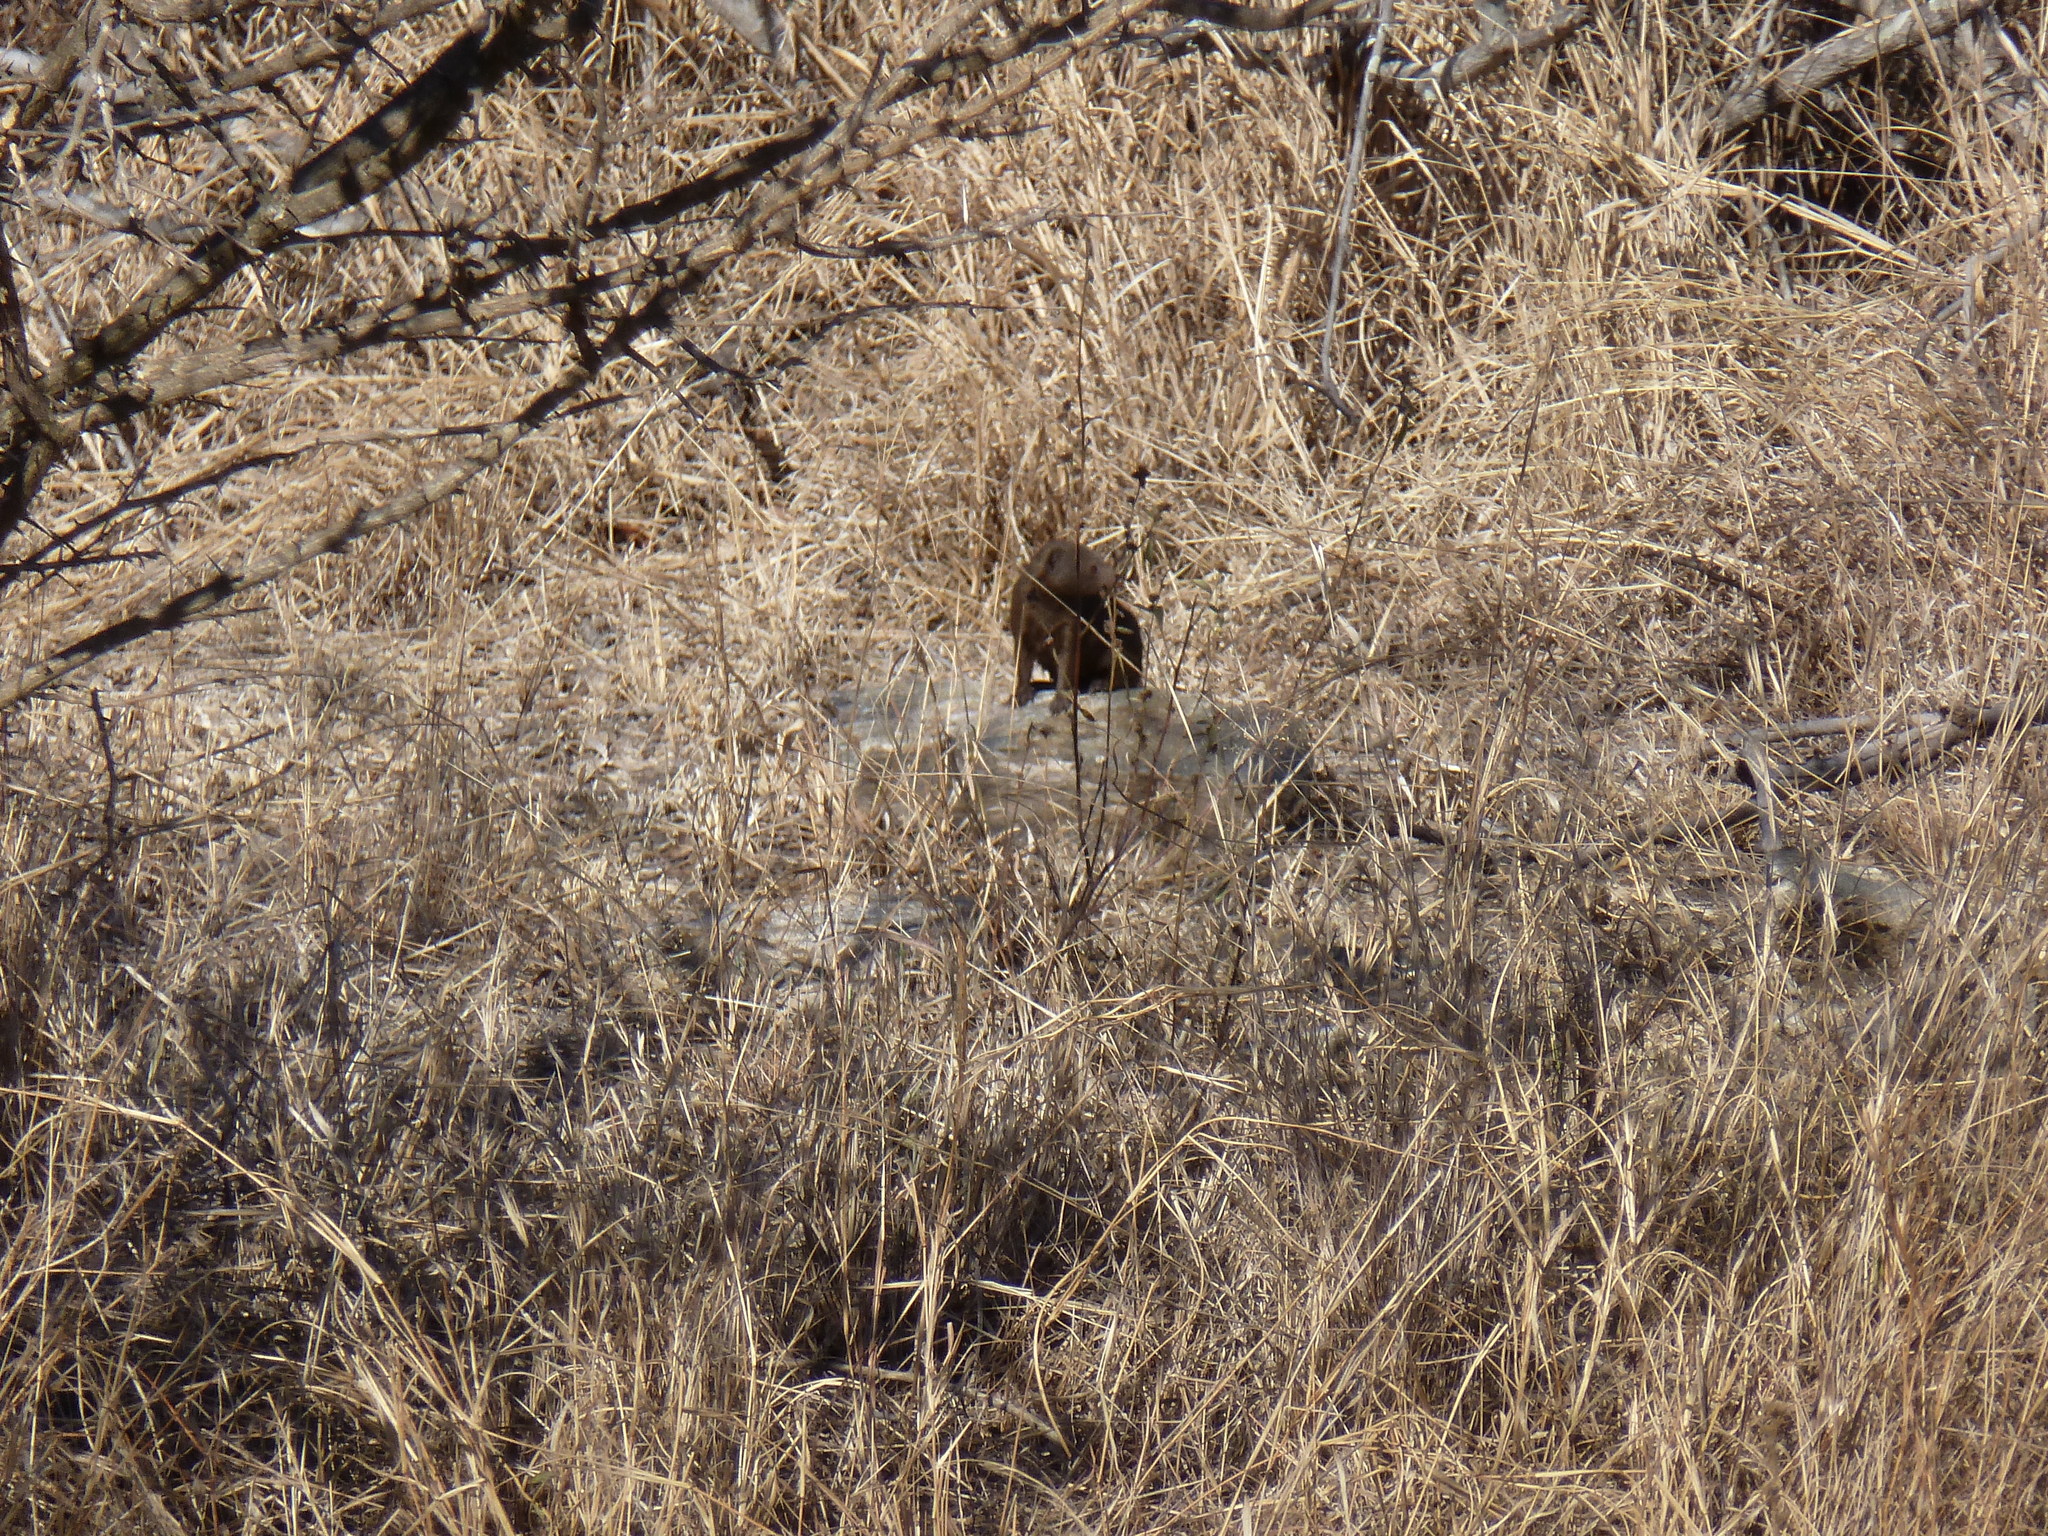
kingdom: Animalia
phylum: Chordata
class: Mammalia
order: Carnivora
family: Herpestidae
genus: Helogale
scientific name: Helogale parvula
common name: Common dwarf mongoose
